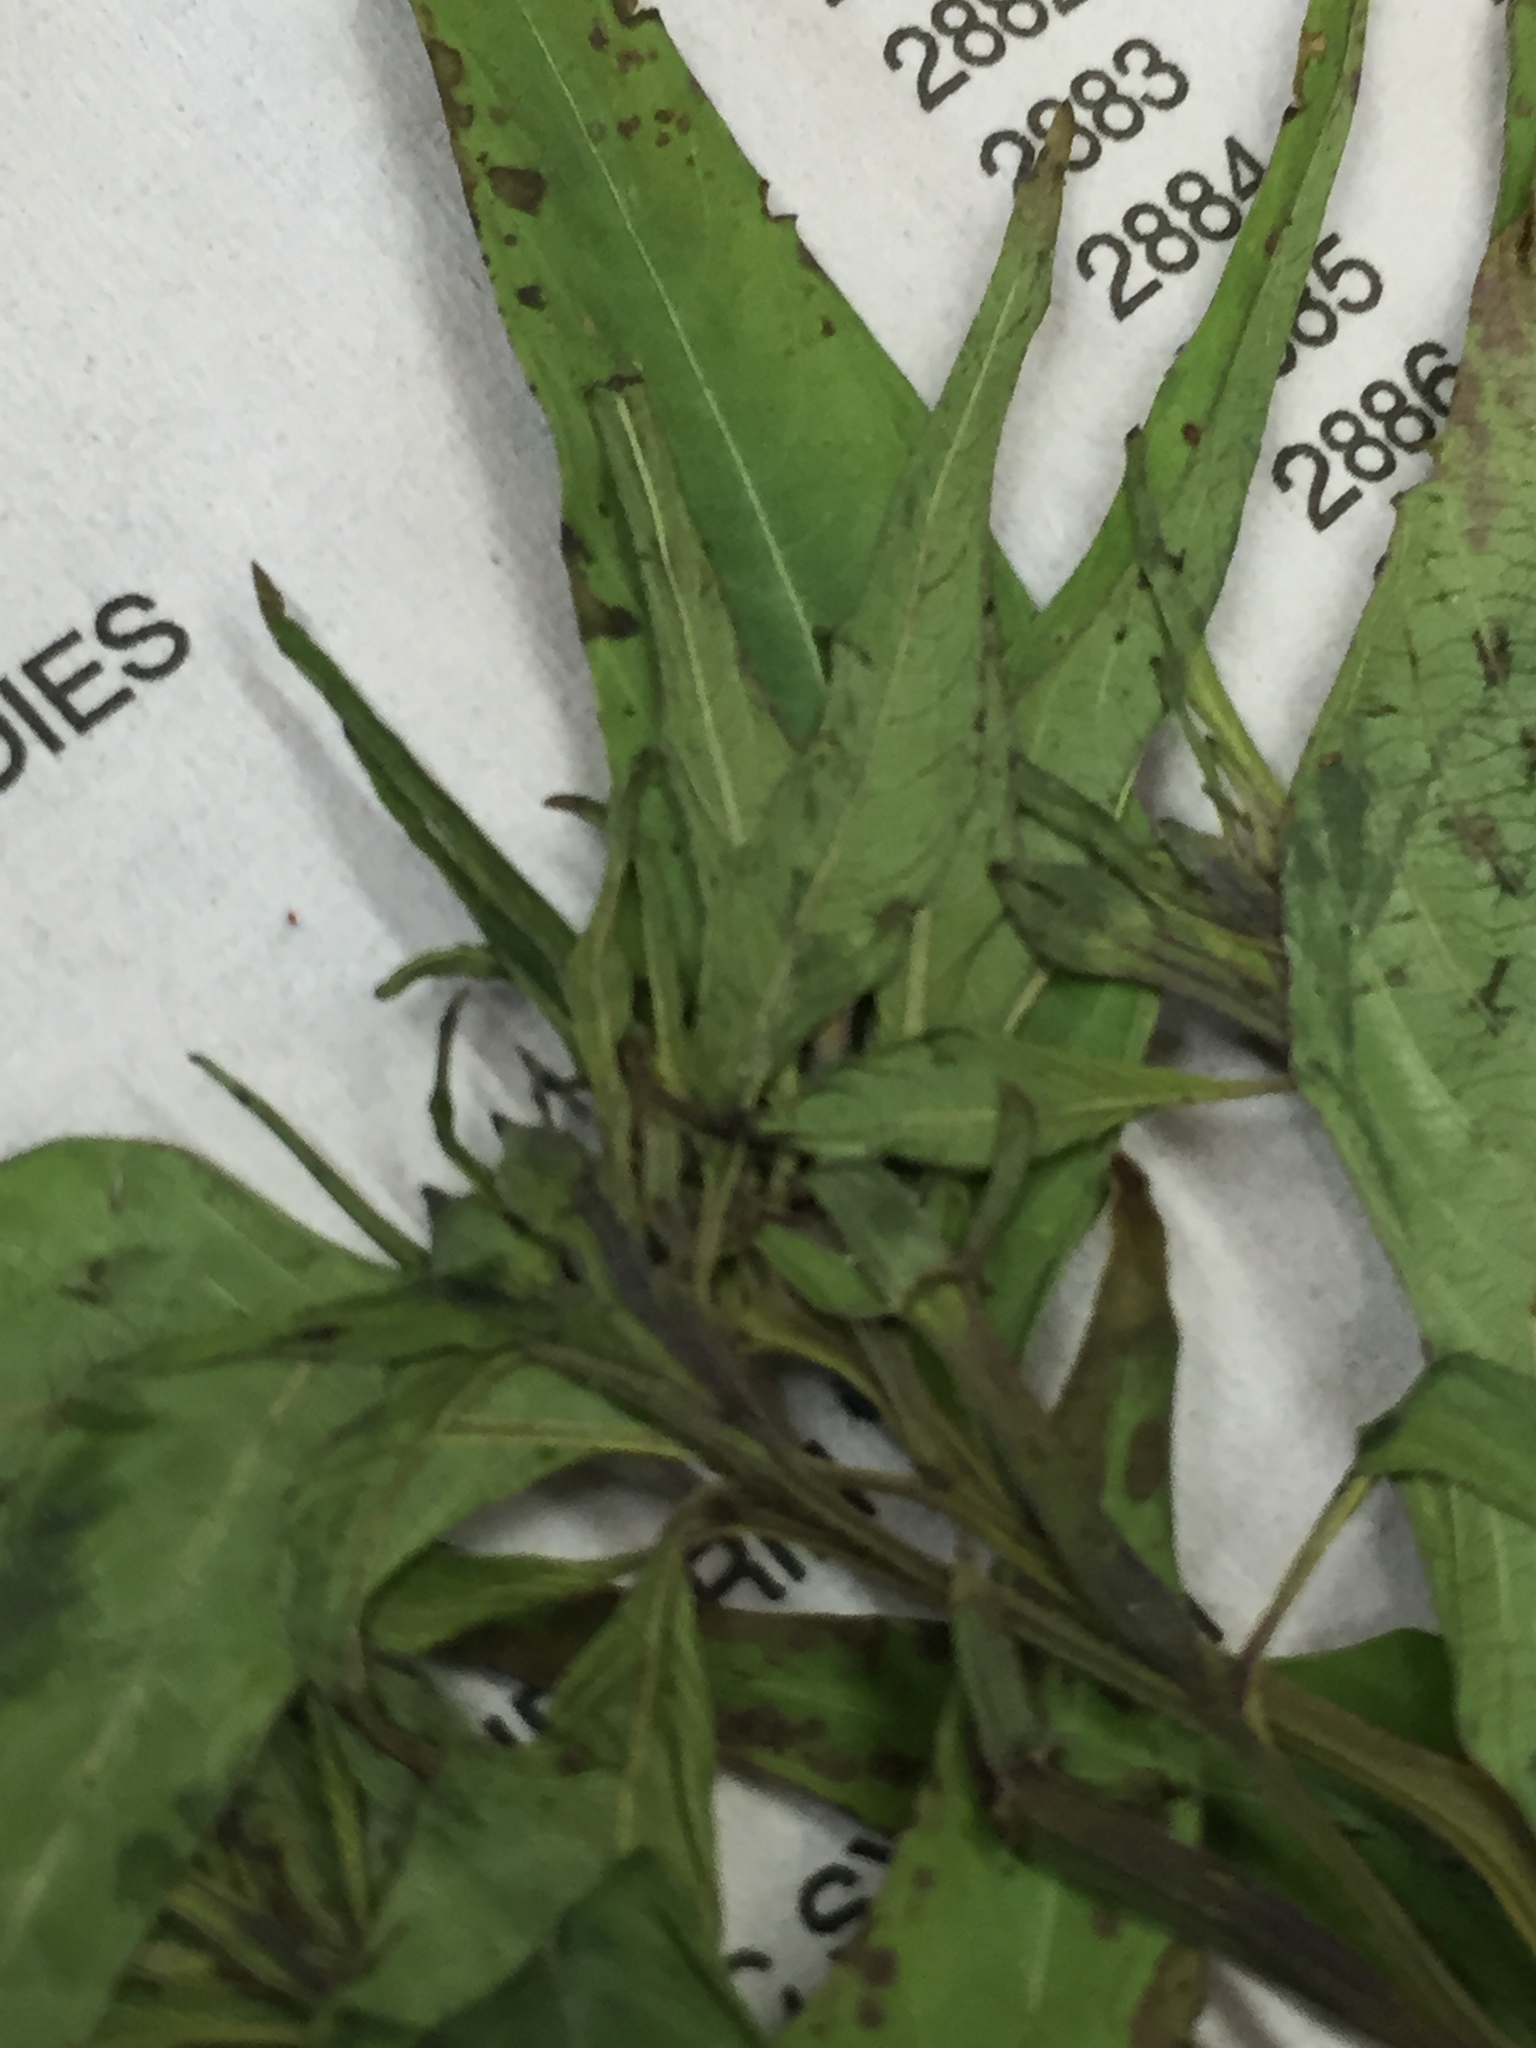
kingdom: Plantae
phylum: Tracheophyta
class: Magnoliopsida
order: Myrtales
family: Onagraceae
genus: Ludwigia
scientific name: Ludwigia decurrens
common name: Winged water-primrose
